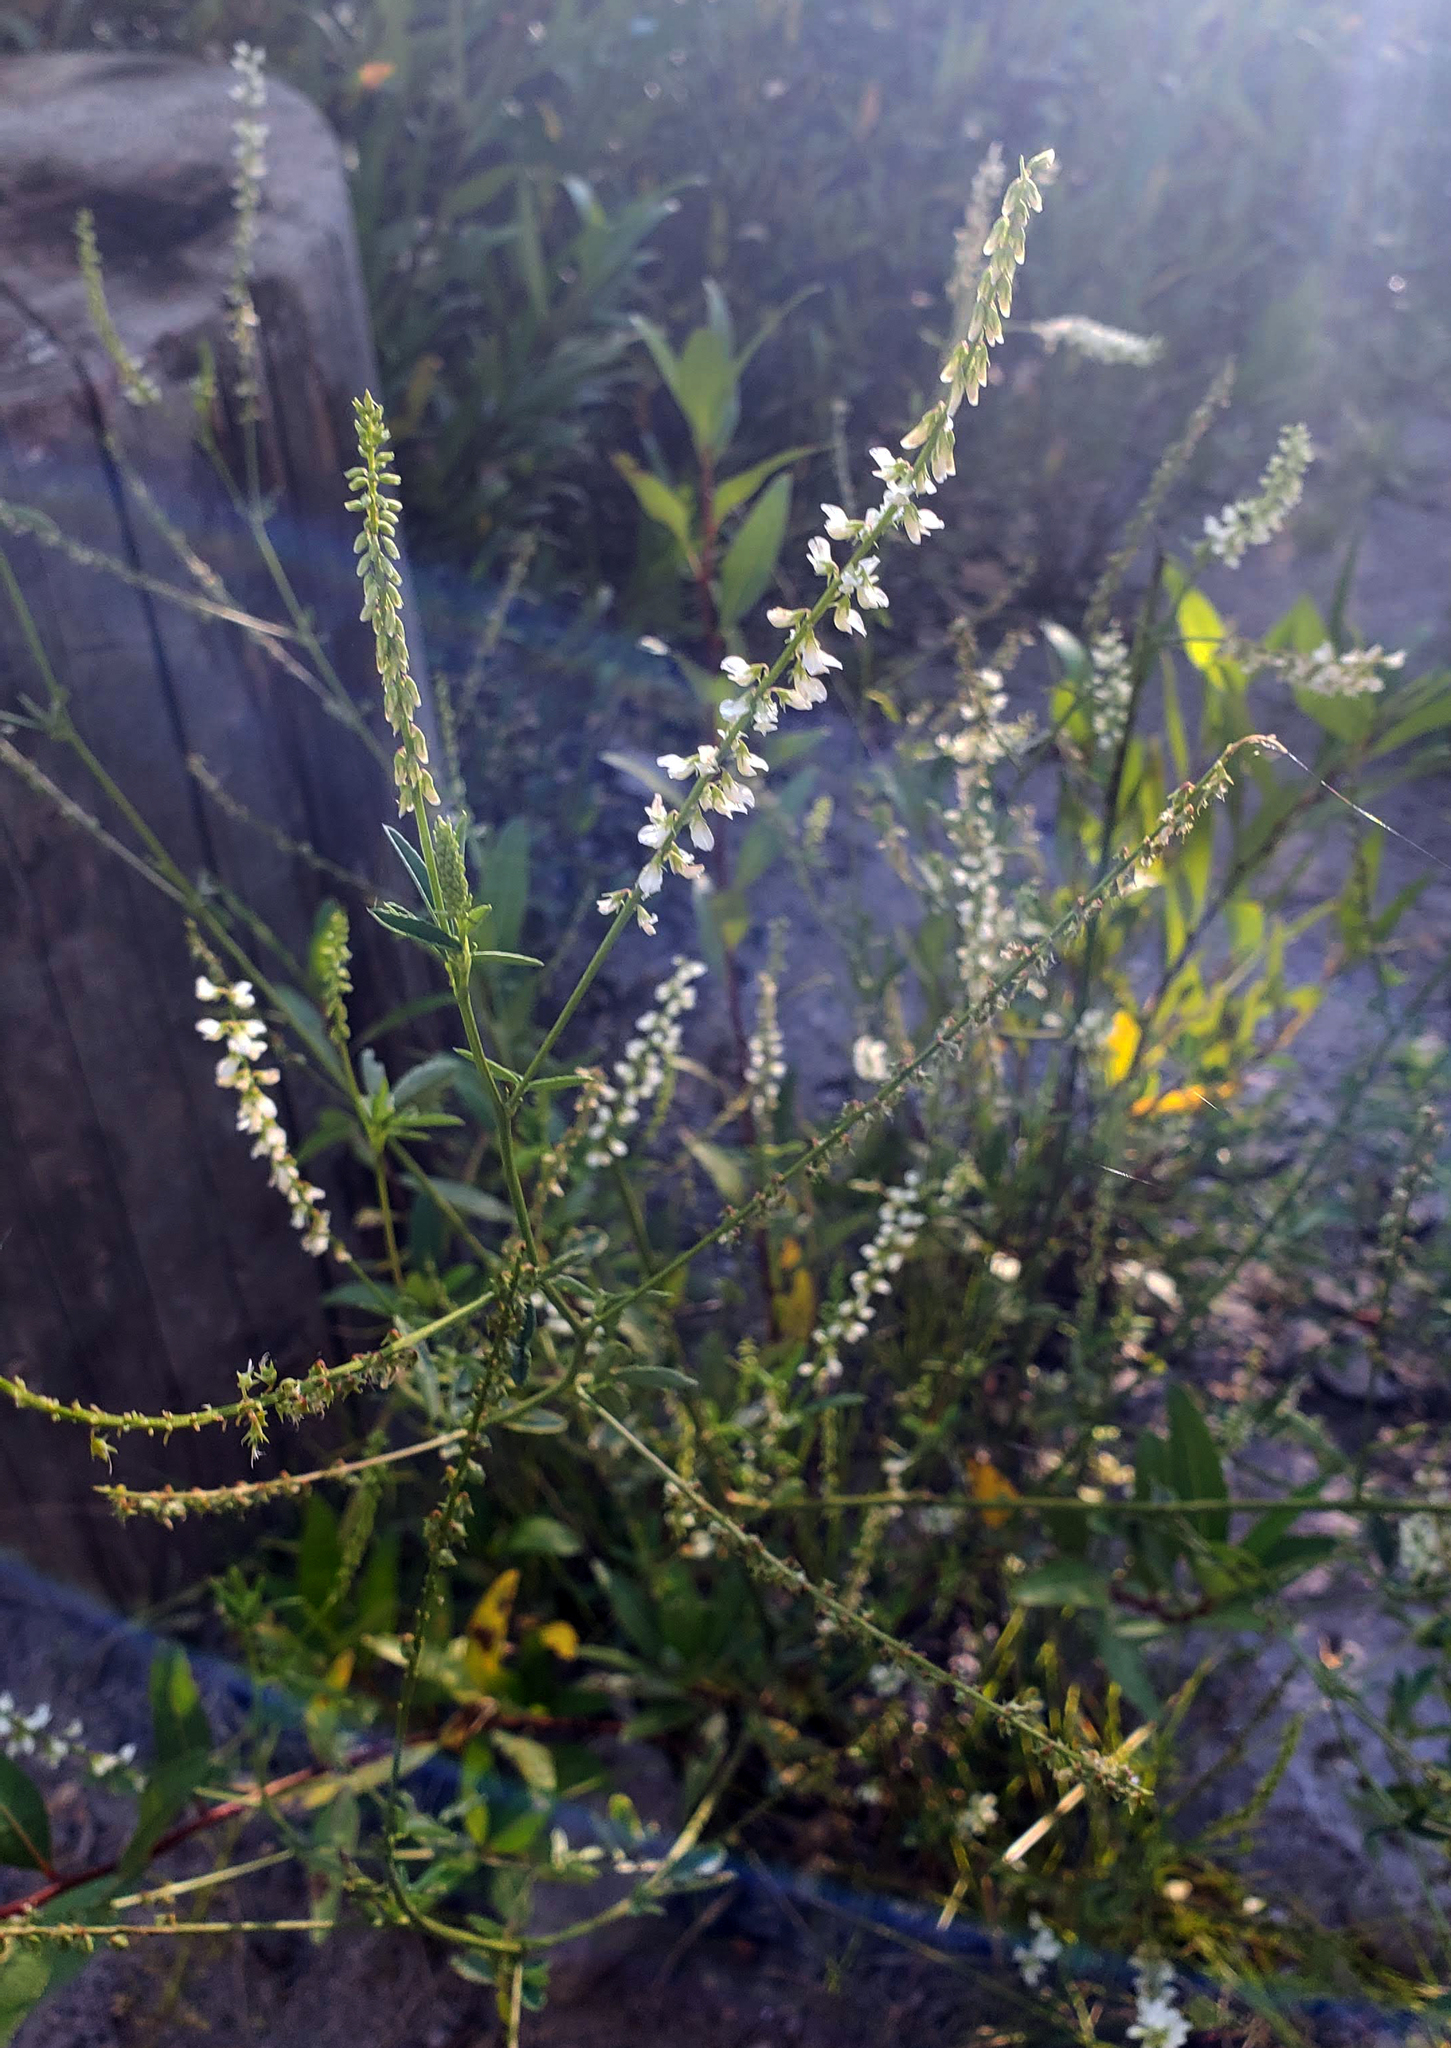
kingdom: Plantae
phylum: Tracheophyta
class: Magnoliopsida
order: Fabales
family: Fabaceae
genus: Melilotus
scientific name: Melilotus albus
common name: White melilot
